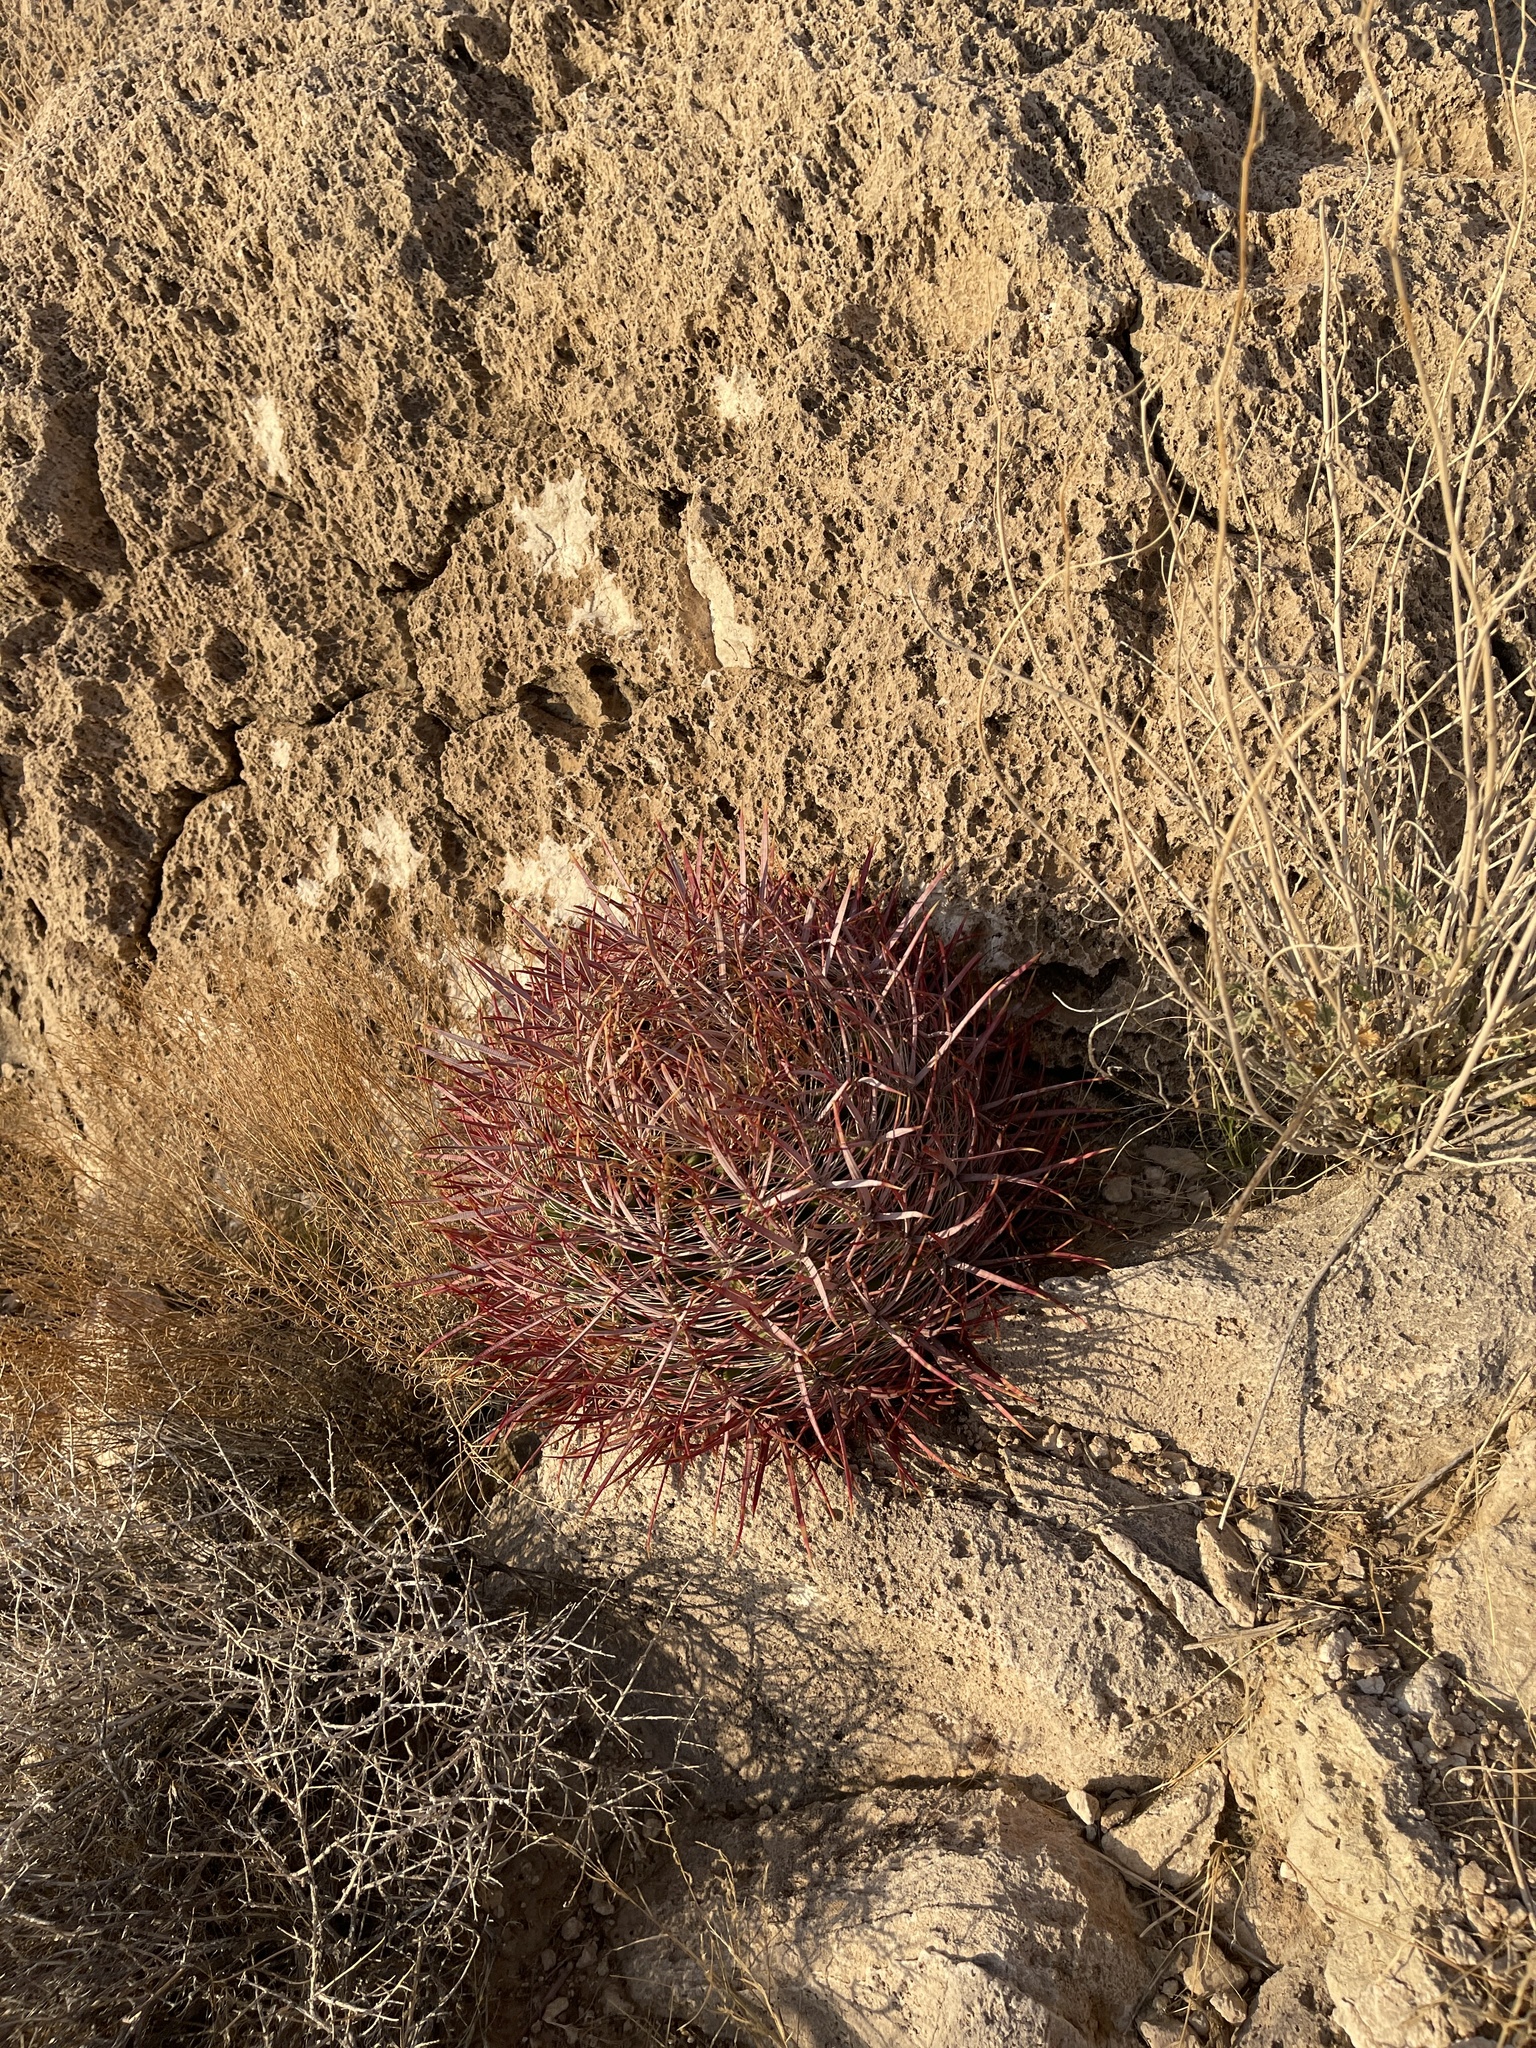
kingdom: Plantae
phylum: Tracheophyta
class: Magnoliopsida
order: Caryophyllales
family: Cactaceae
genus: Ferocactus
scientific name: Ferocactus cylindraceus
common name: California barrel cactus
